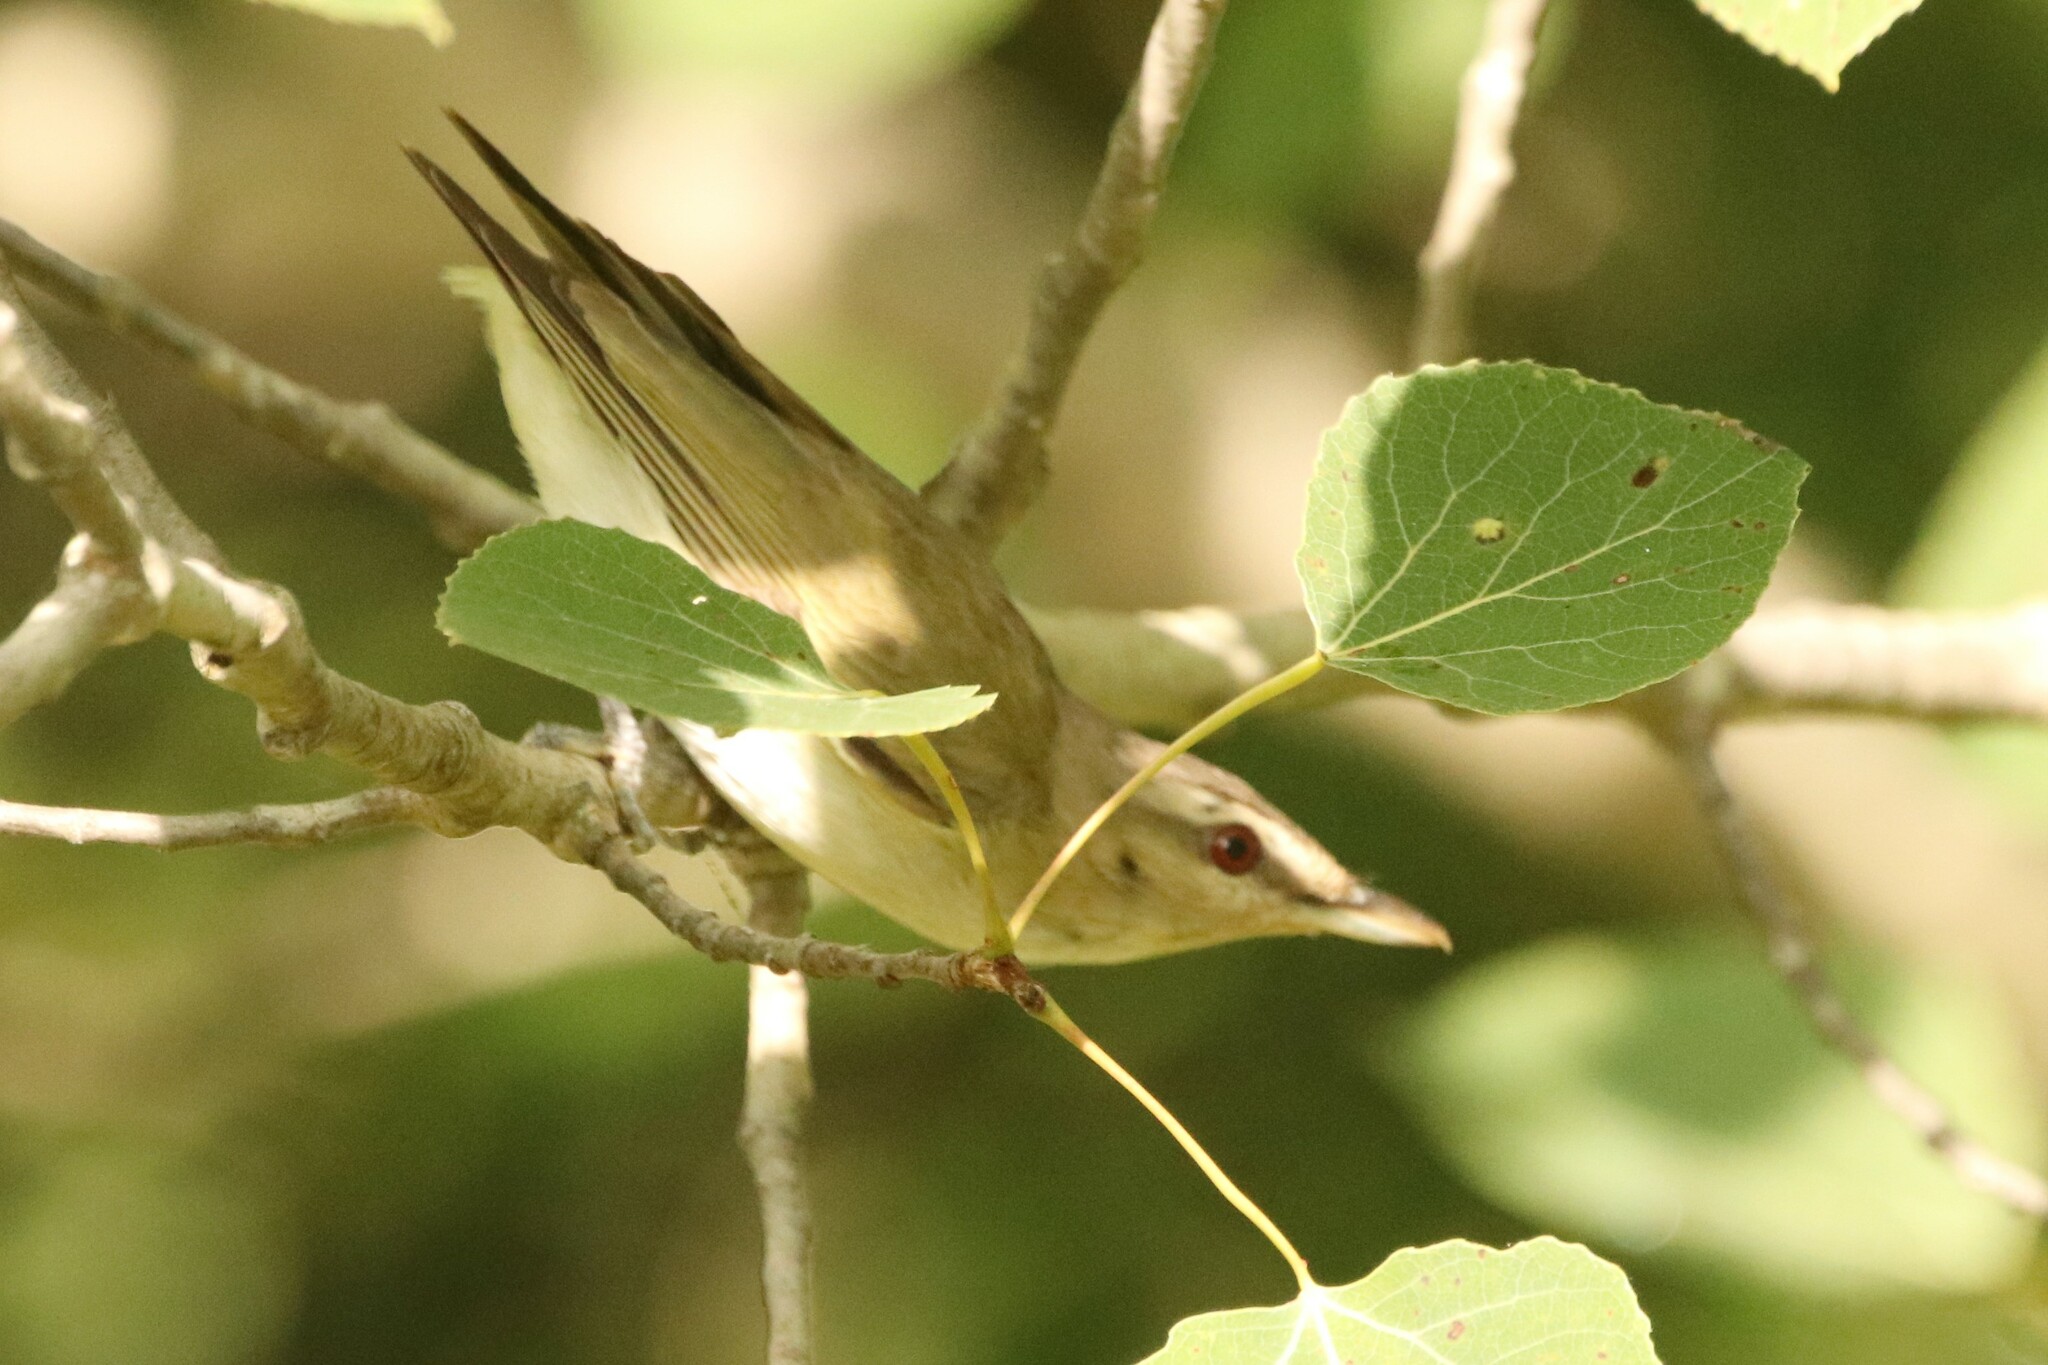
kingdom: Animalia
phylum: Chordata
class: Aves
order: Passeriformes
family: Vireonidae
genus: Vireo
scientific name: Vireo olivaceus
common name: Red-eyed vireo
